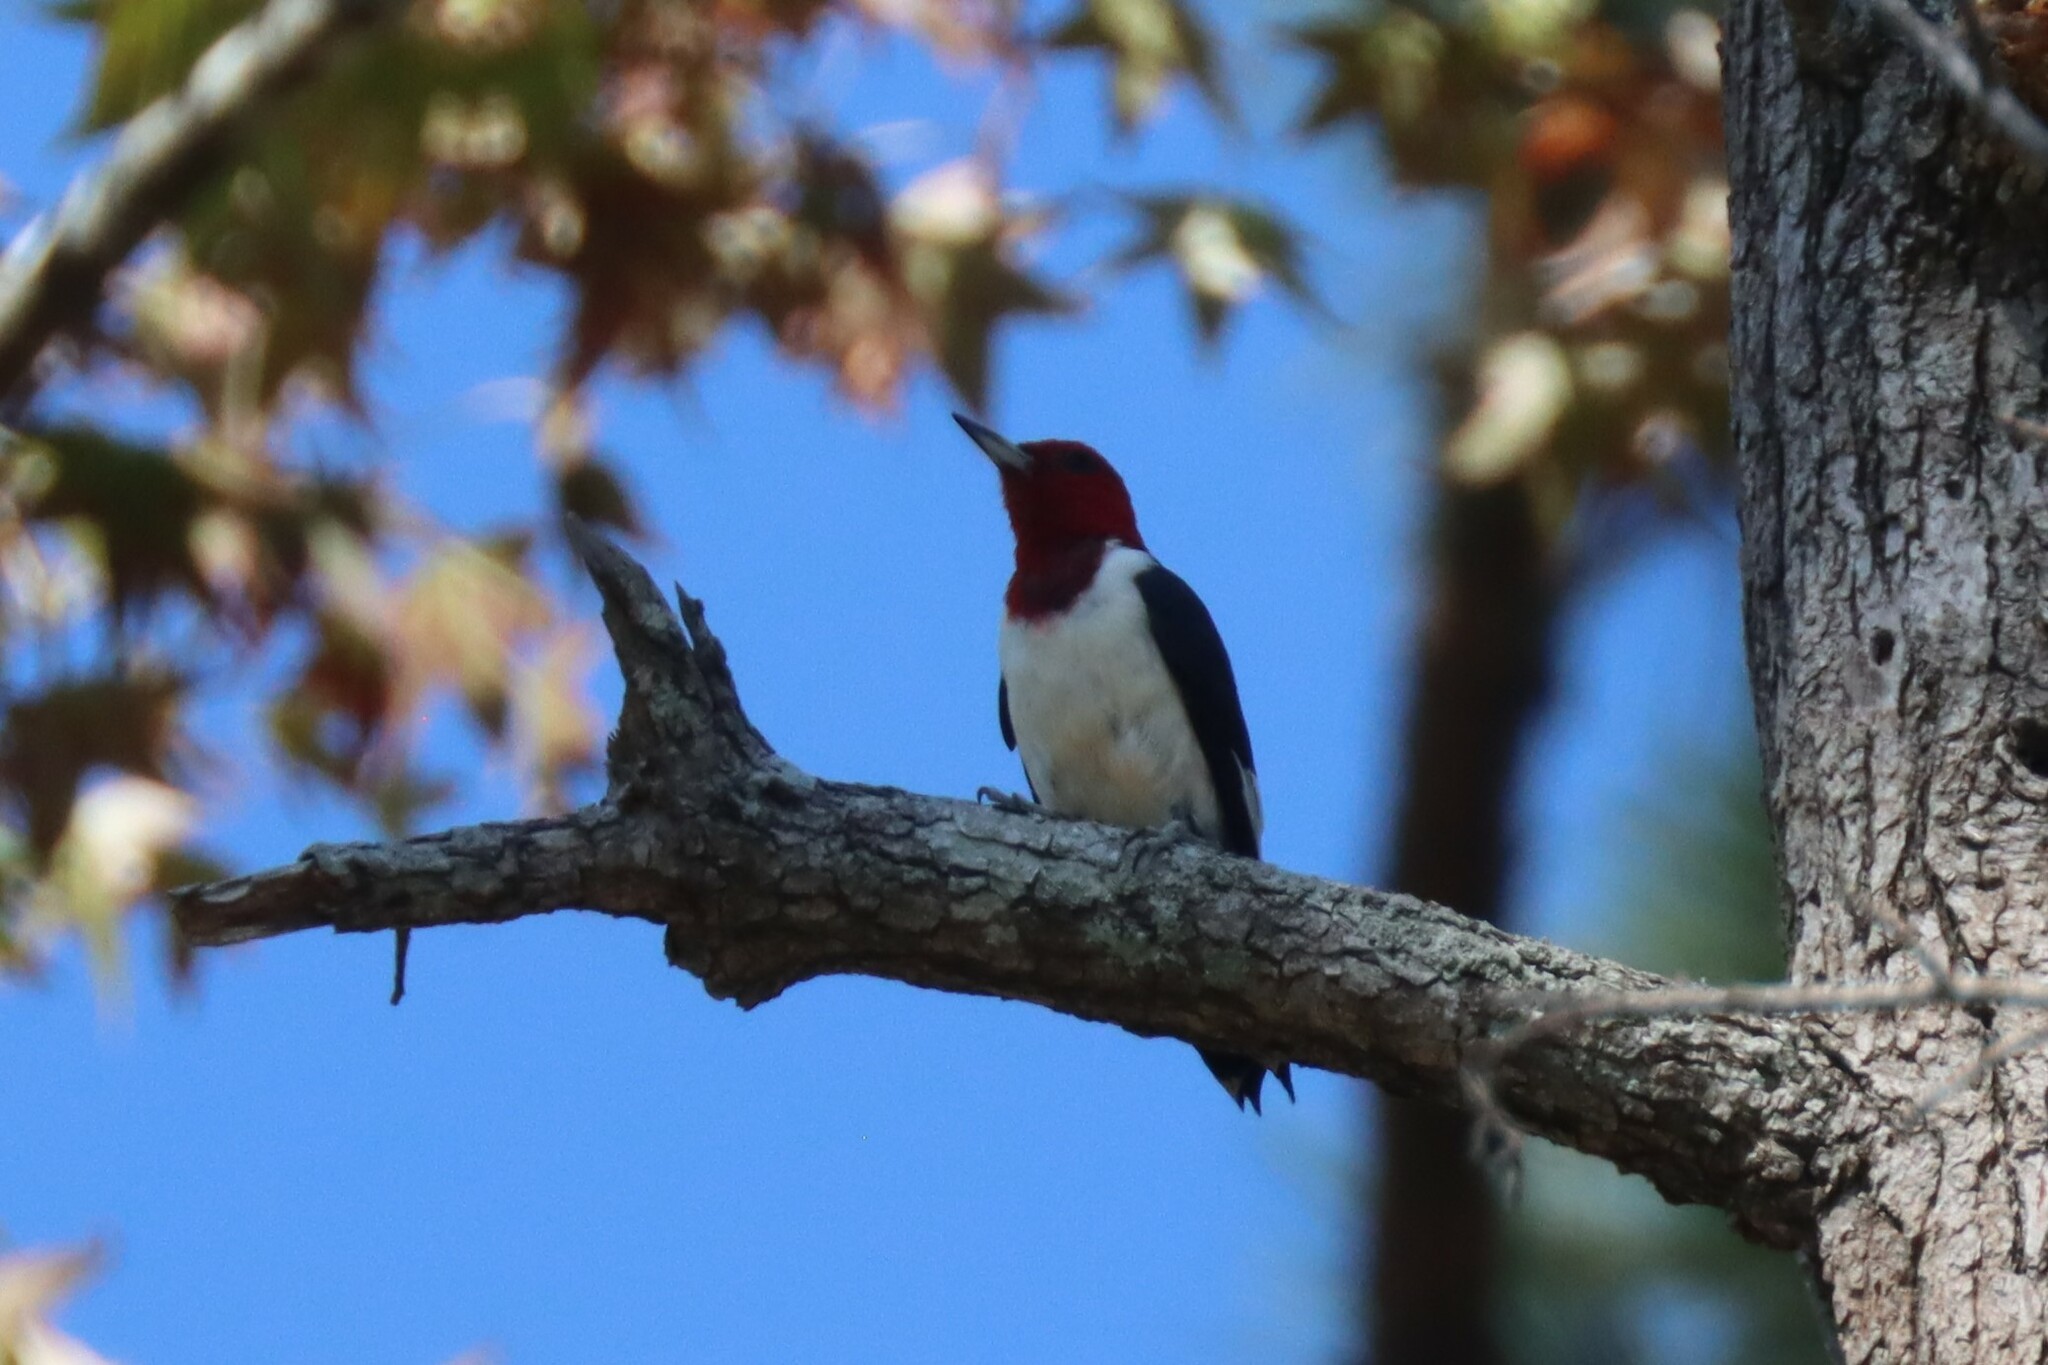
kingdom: Animalia
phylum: Chordata
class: Aves
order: Piciformes
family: Picidae
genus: Melanerpes
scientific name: Melanerpes erythrocephalus
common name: Red-headed woodpecker
